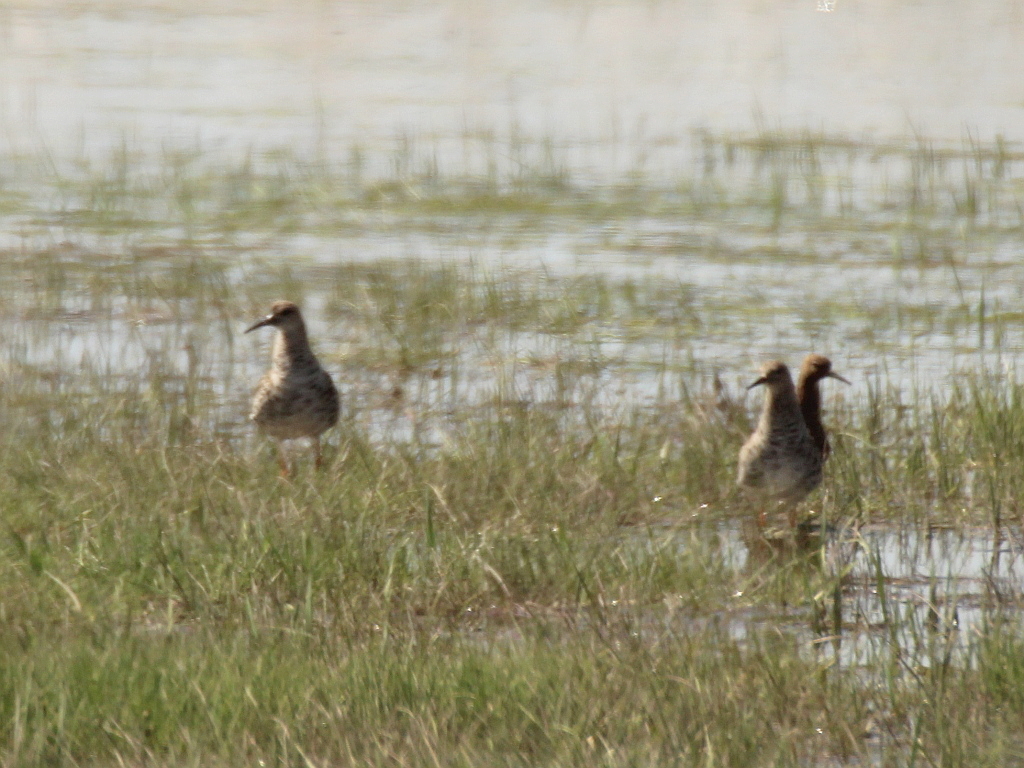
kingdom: Animalia
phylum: Chordata
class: Aves
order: Charadriiformes
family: Scolopacidae
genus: Calidris
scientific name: Calidris pugnax
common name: Ruff
